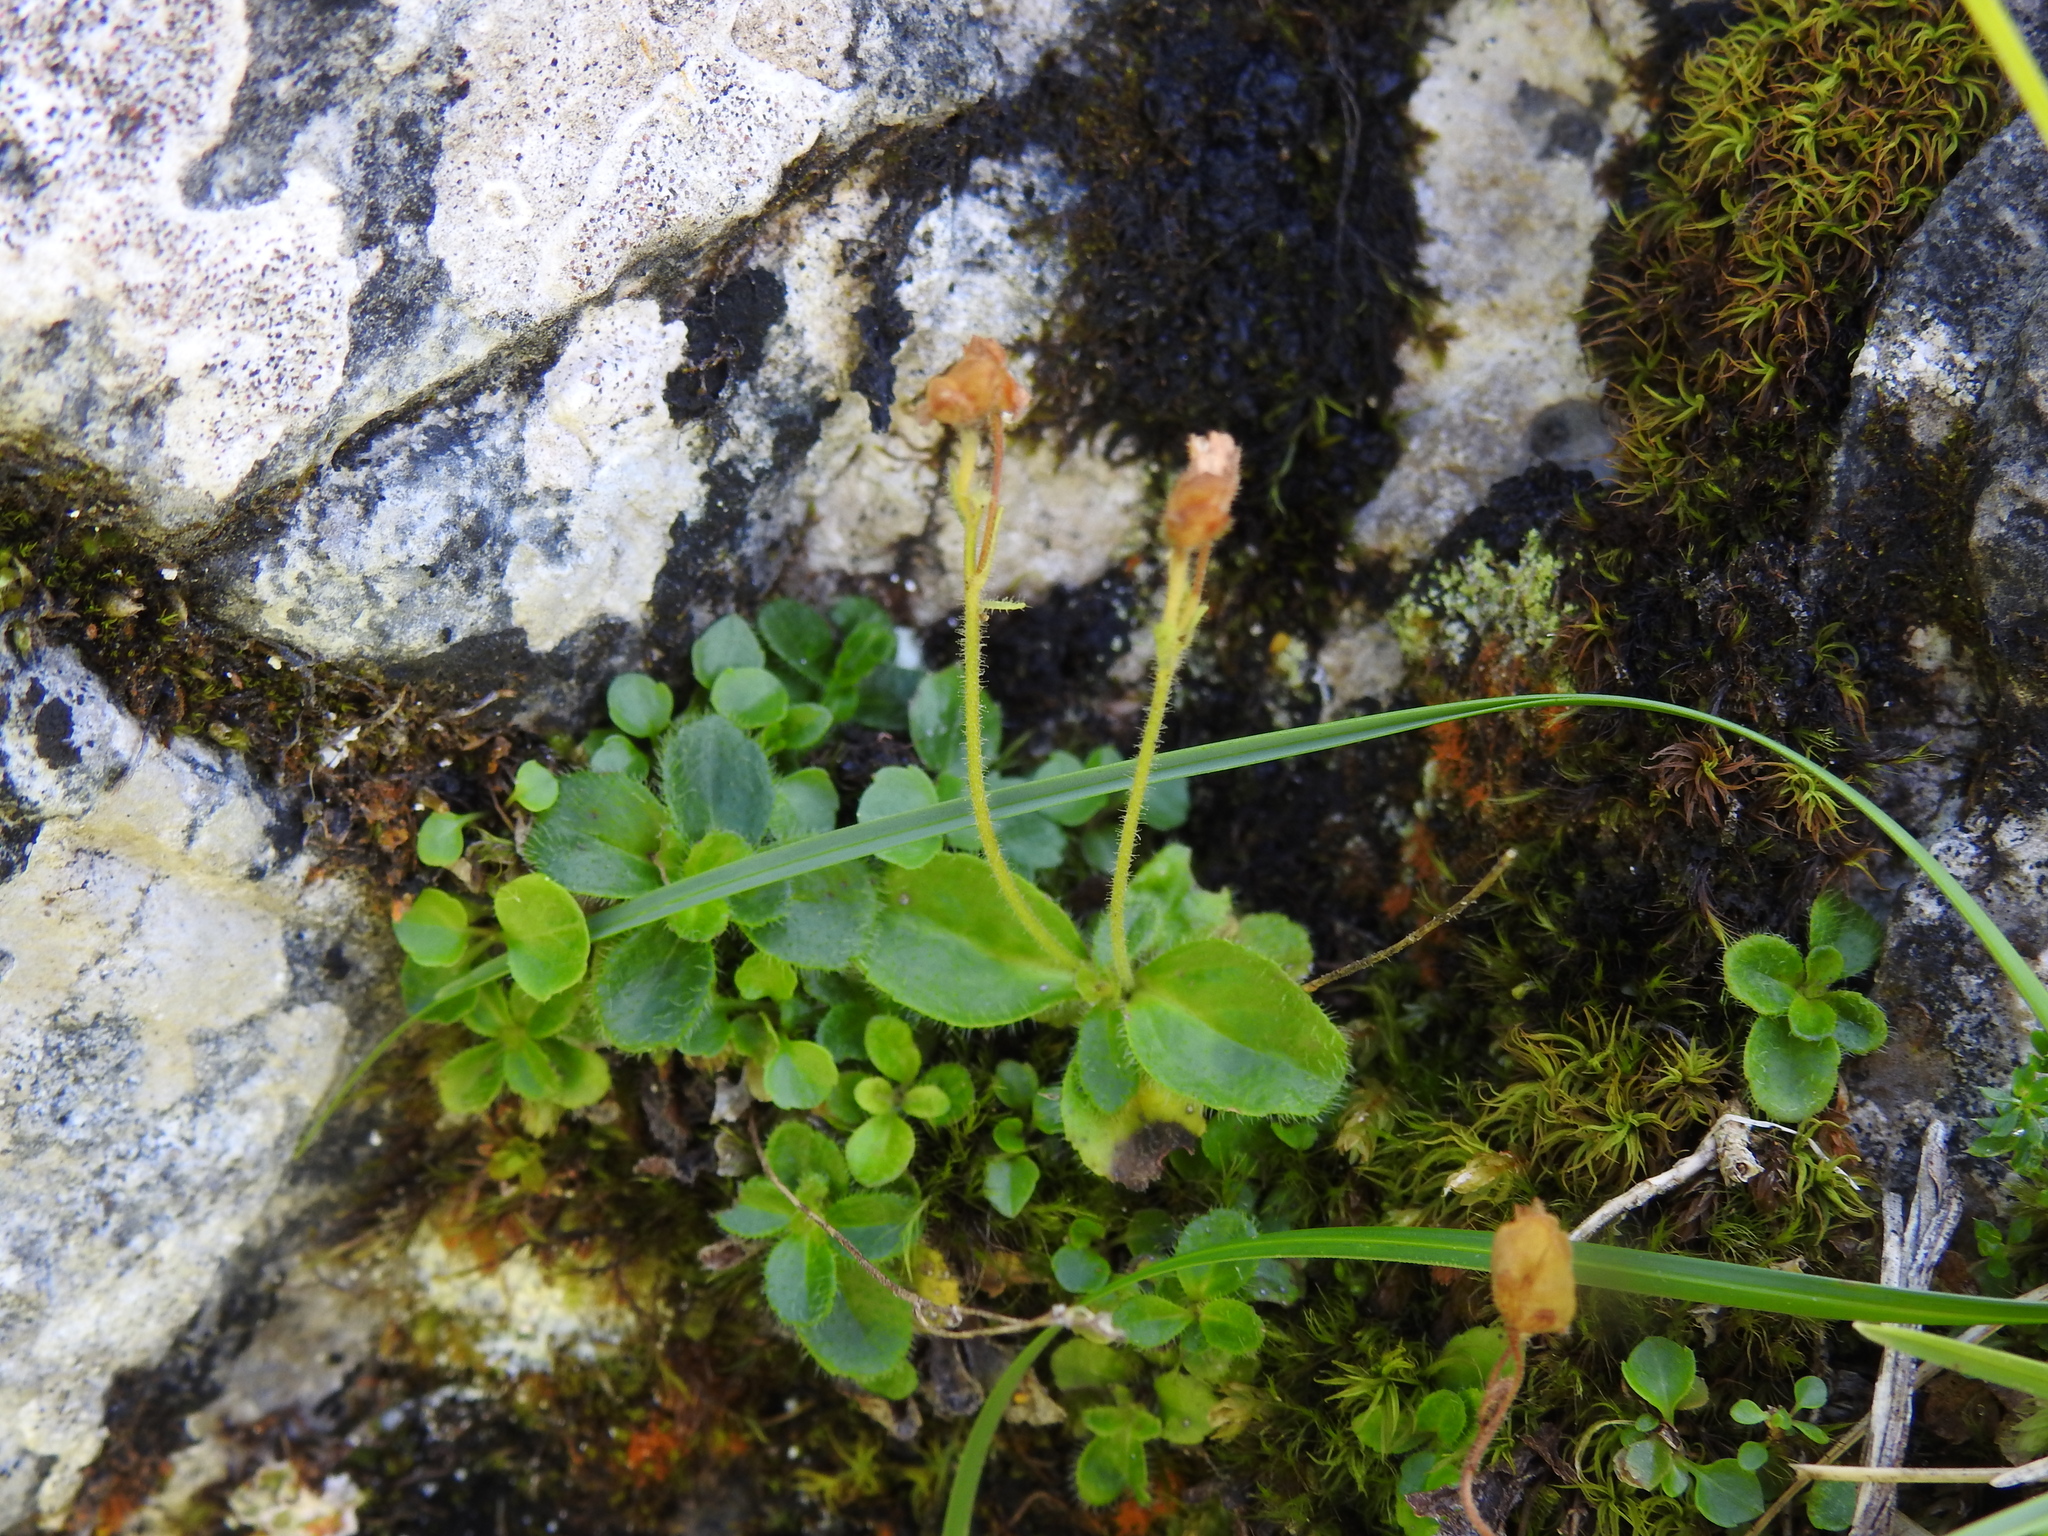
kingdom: Plantae
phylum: Tracheophyta
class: Magnoliopsida
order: Lamiales
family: Plantaginaceae
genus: Veronica
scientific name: Veronica aphylla
